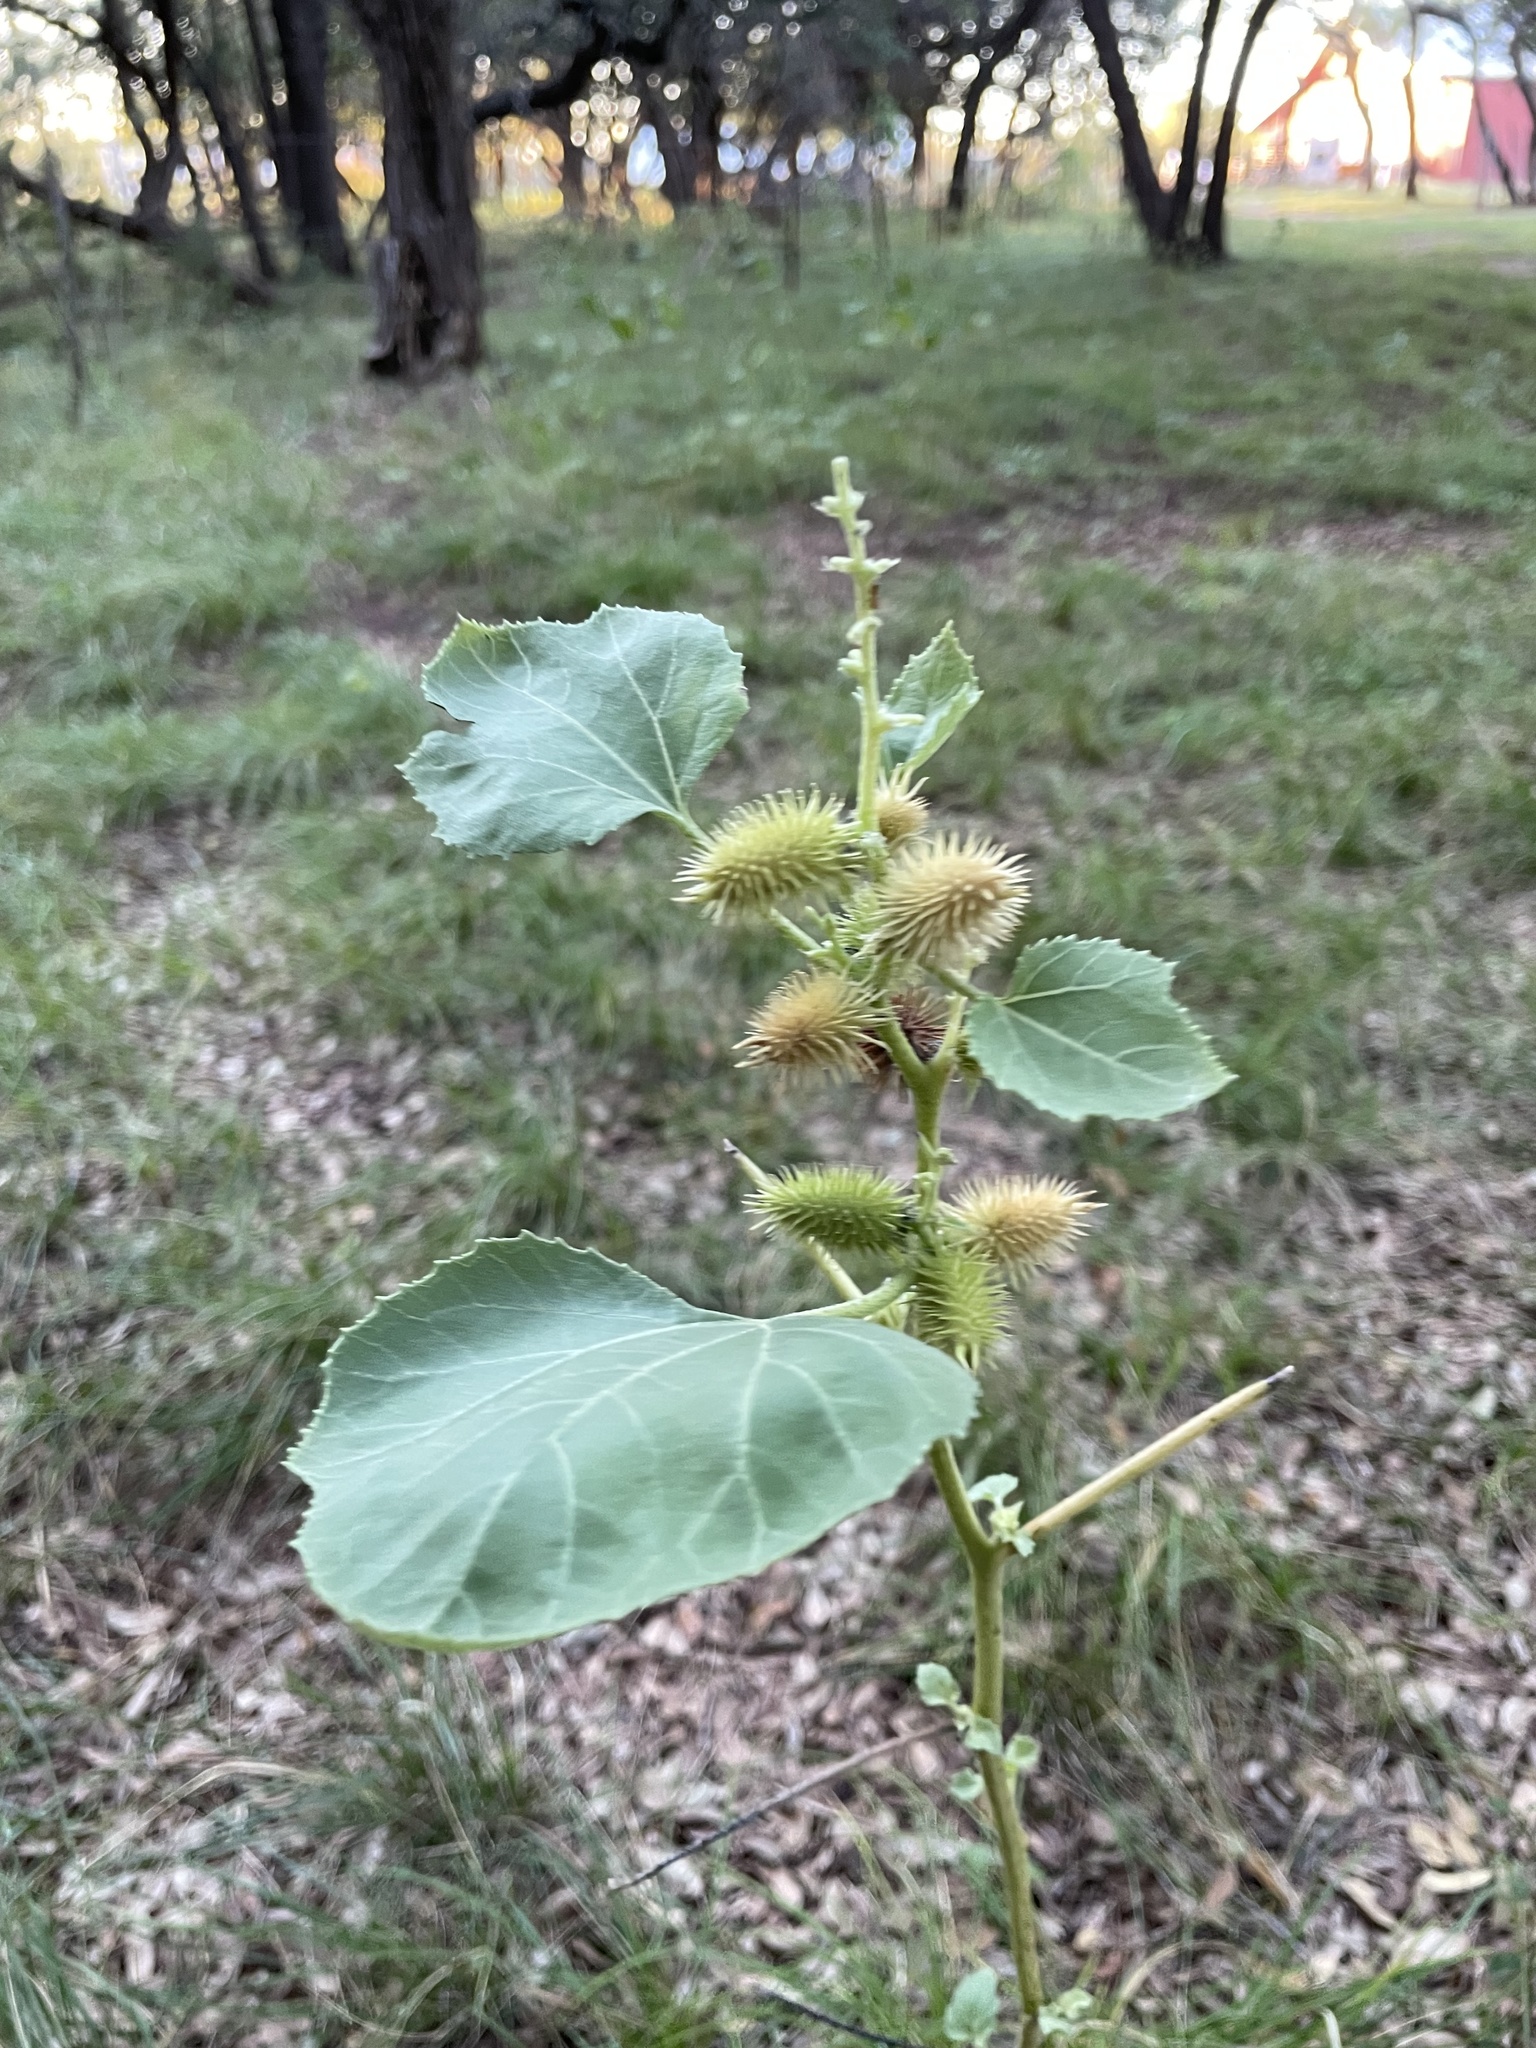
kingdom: Plantae
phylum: Tracheophyta
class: Magnoliopsida
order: Asterales
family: Asteraceae
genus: Xanthium
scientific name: Xanthium strumarium
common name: Rough cocklebur
